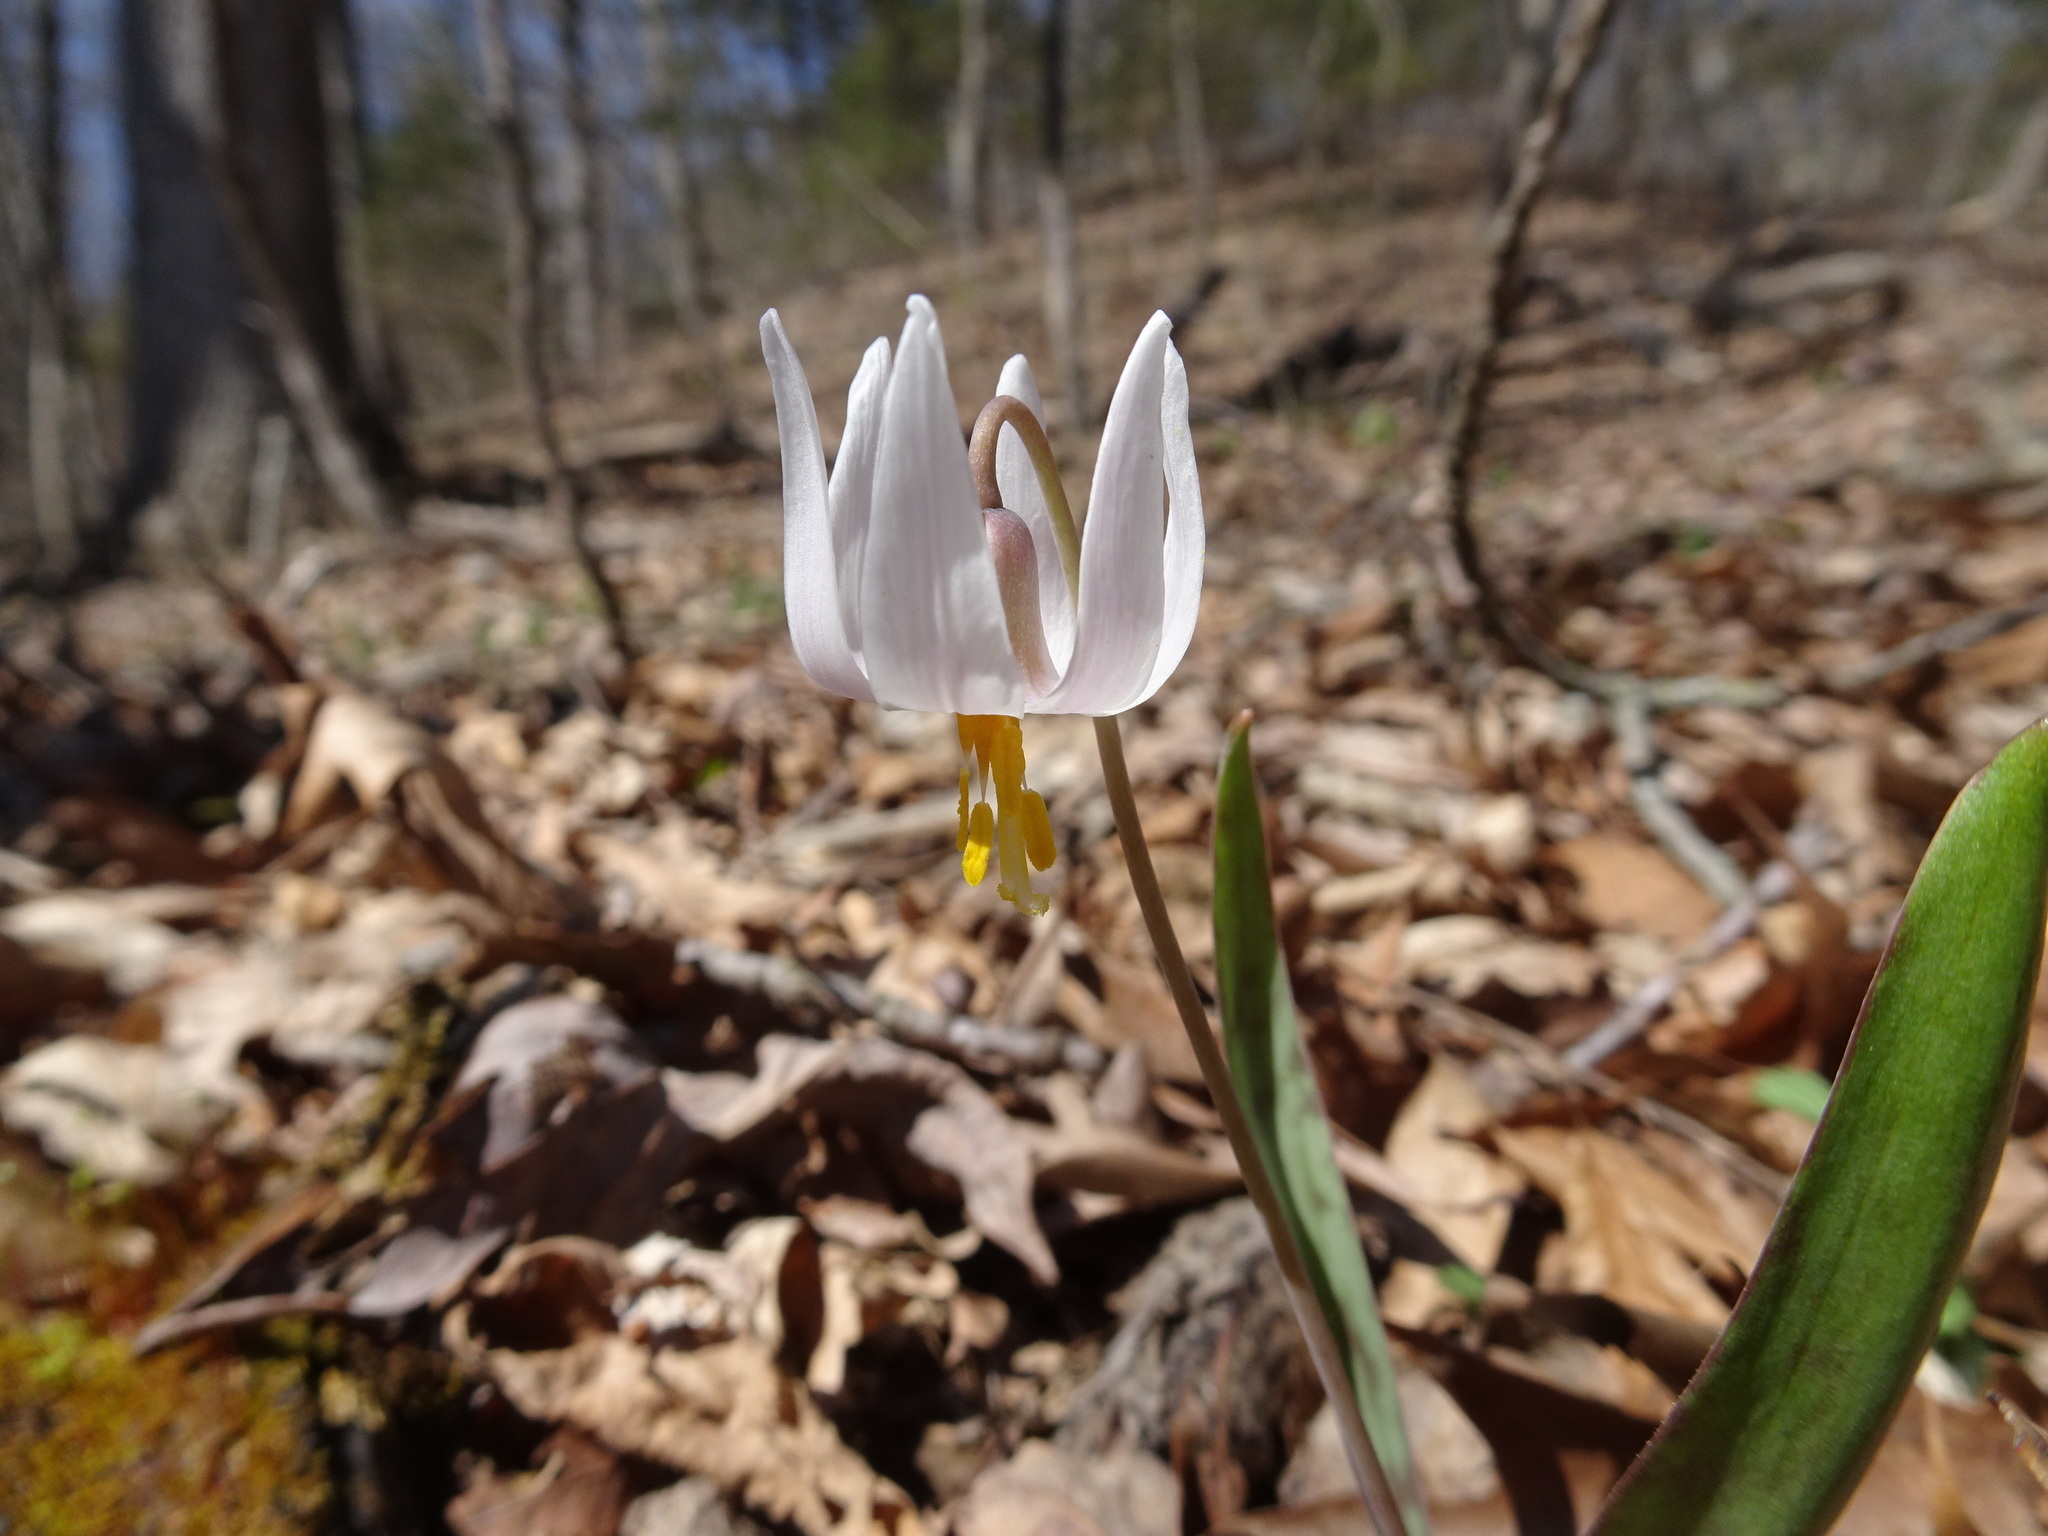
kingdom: Plantae
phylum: Tracheophyta
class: Liliopsida
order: Liliales
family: Liliaceae
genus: Erythronium
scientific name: Erythronium albidum
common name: White trout-lily
